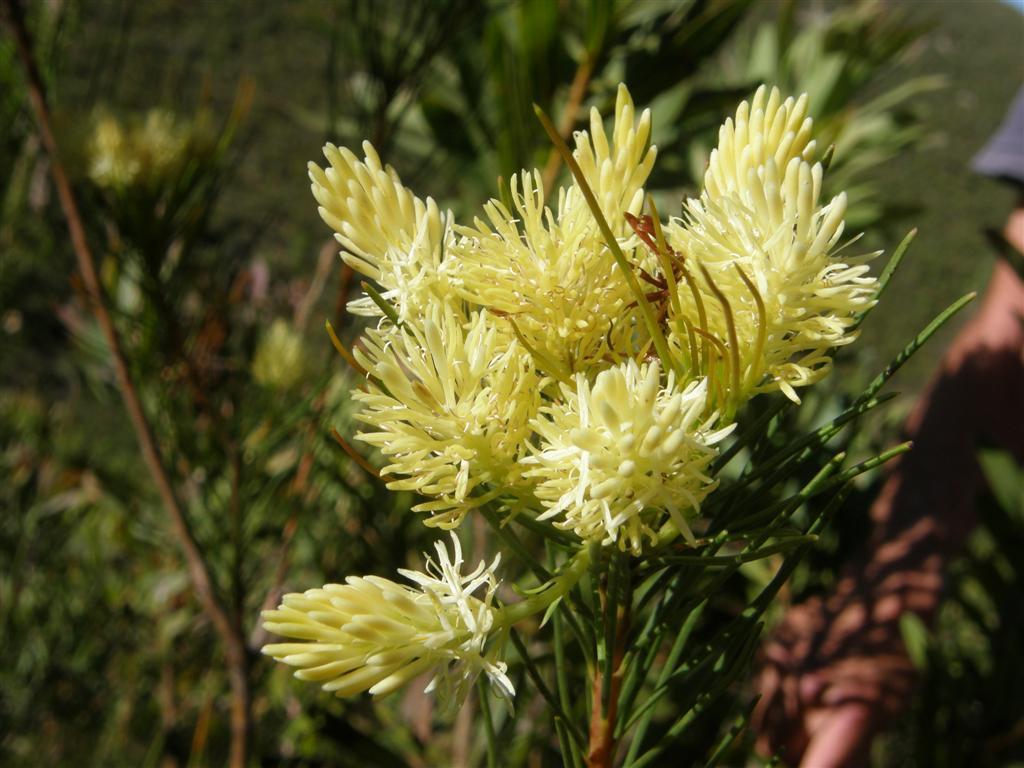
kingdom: Plantae
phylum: Tracheophyta
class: Magnoliopsida
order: Proteales
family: Proteaceae
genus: Aulax
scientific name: Aulax cancellata
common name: Channel-leaf featherbush
